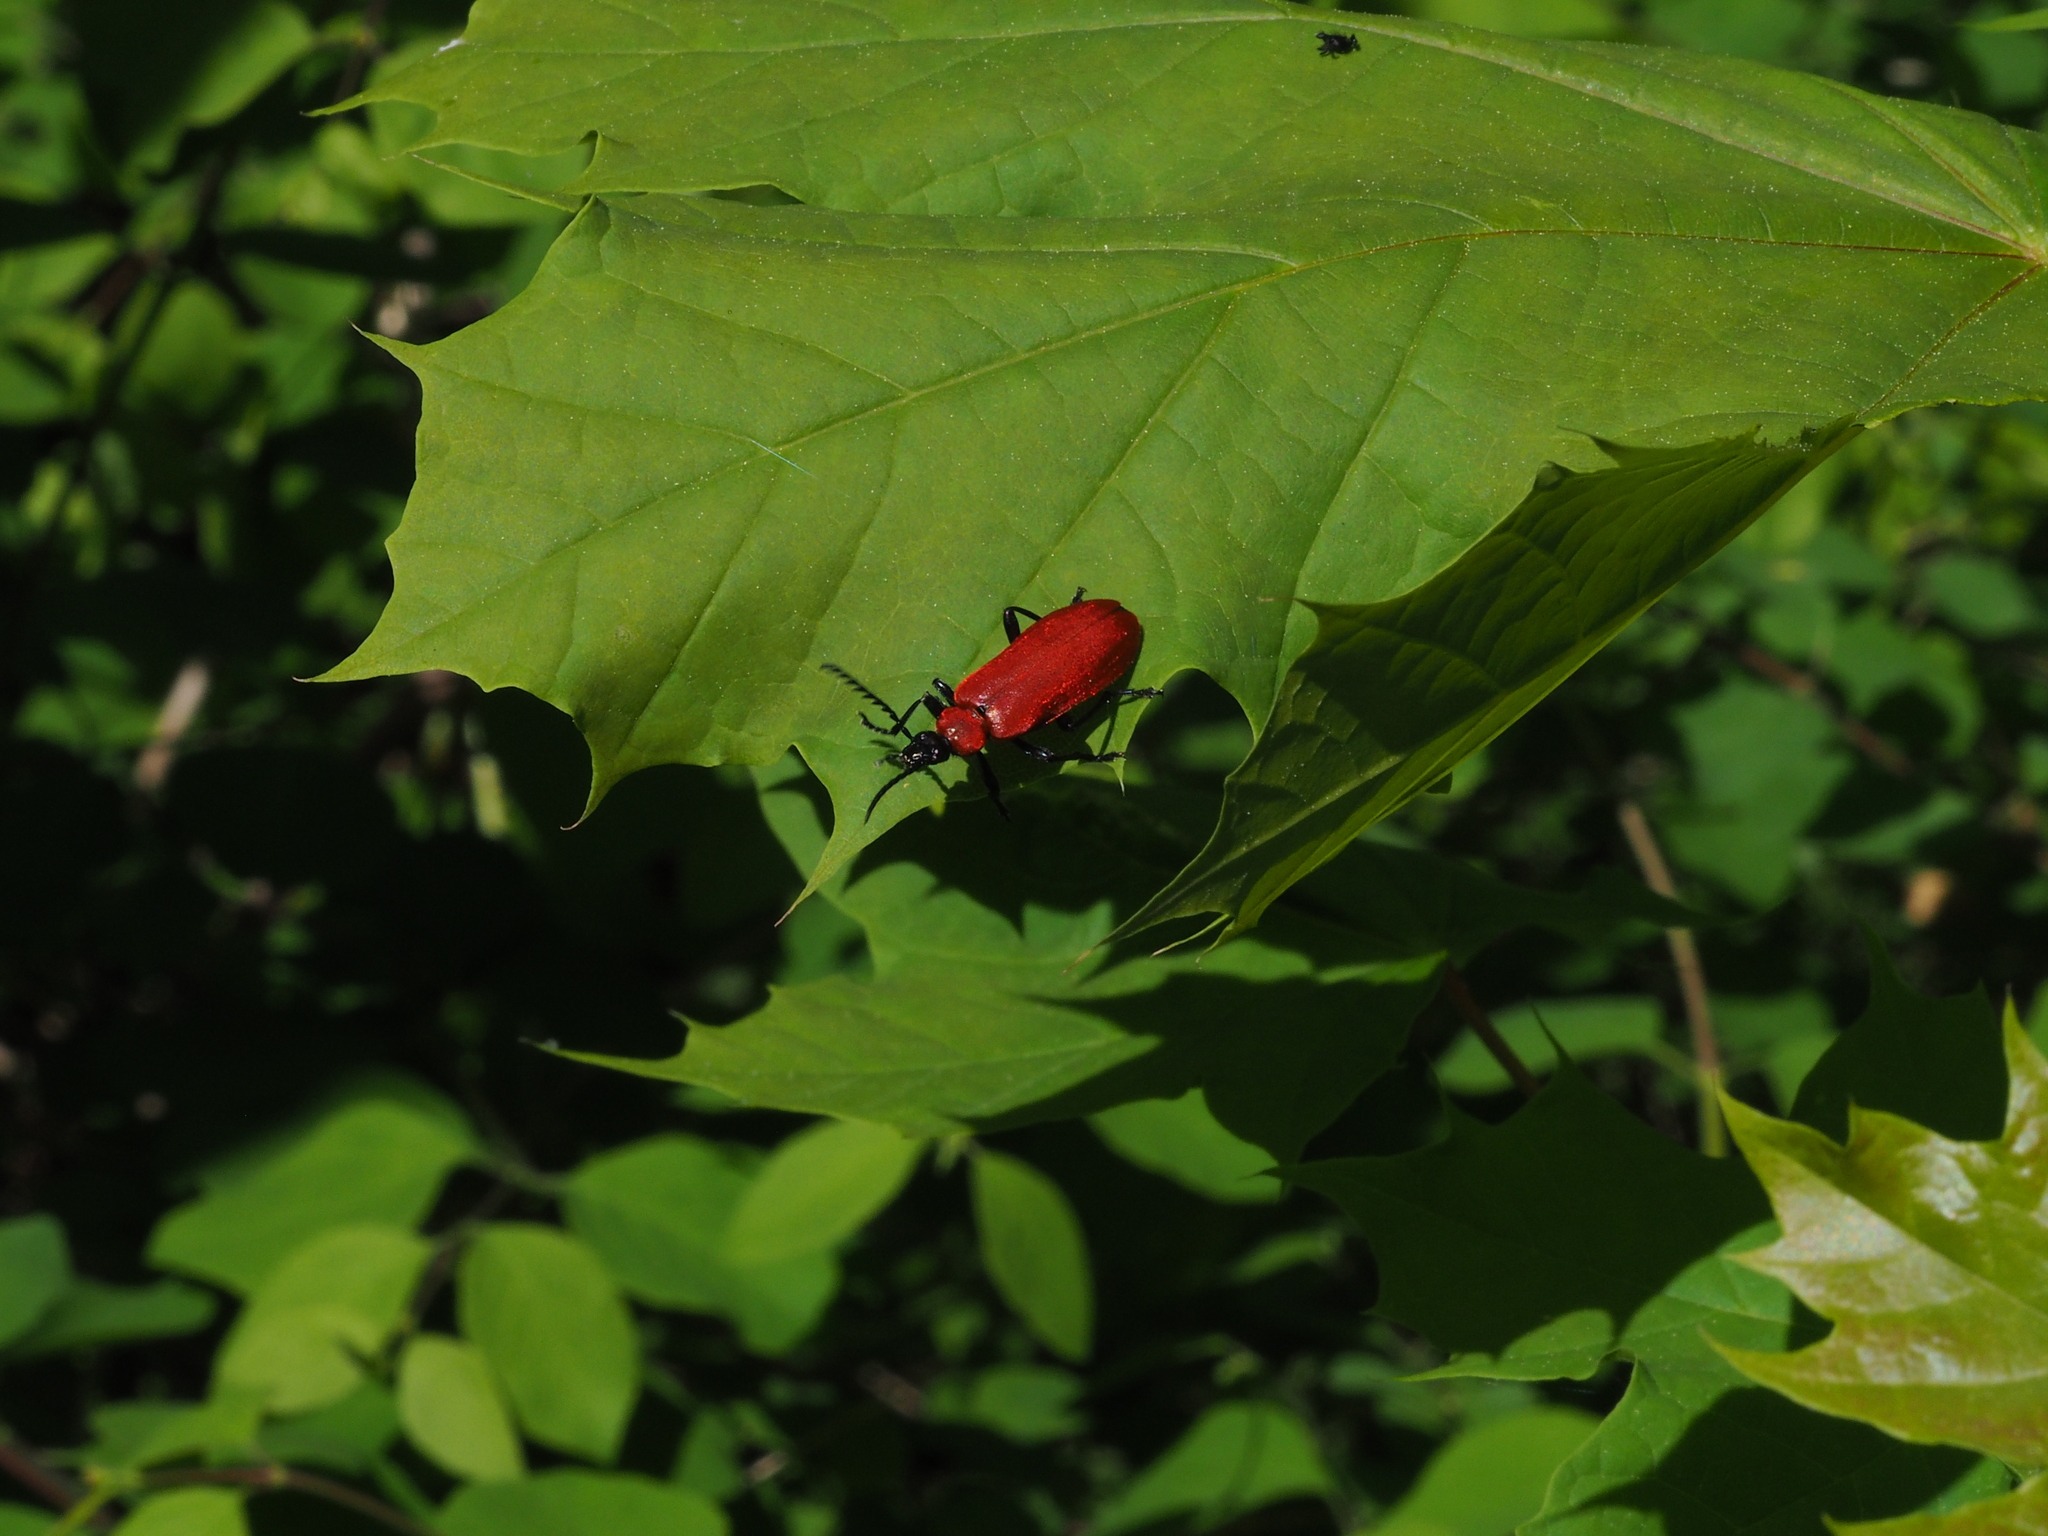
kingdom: Animalia
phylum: Arthropoda
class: Insecta
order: Coleoptera
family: Pyrochroidae
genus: Pyrochroa
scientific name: Pyrochroa coccinea
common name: Black-headed cardinal beetle
